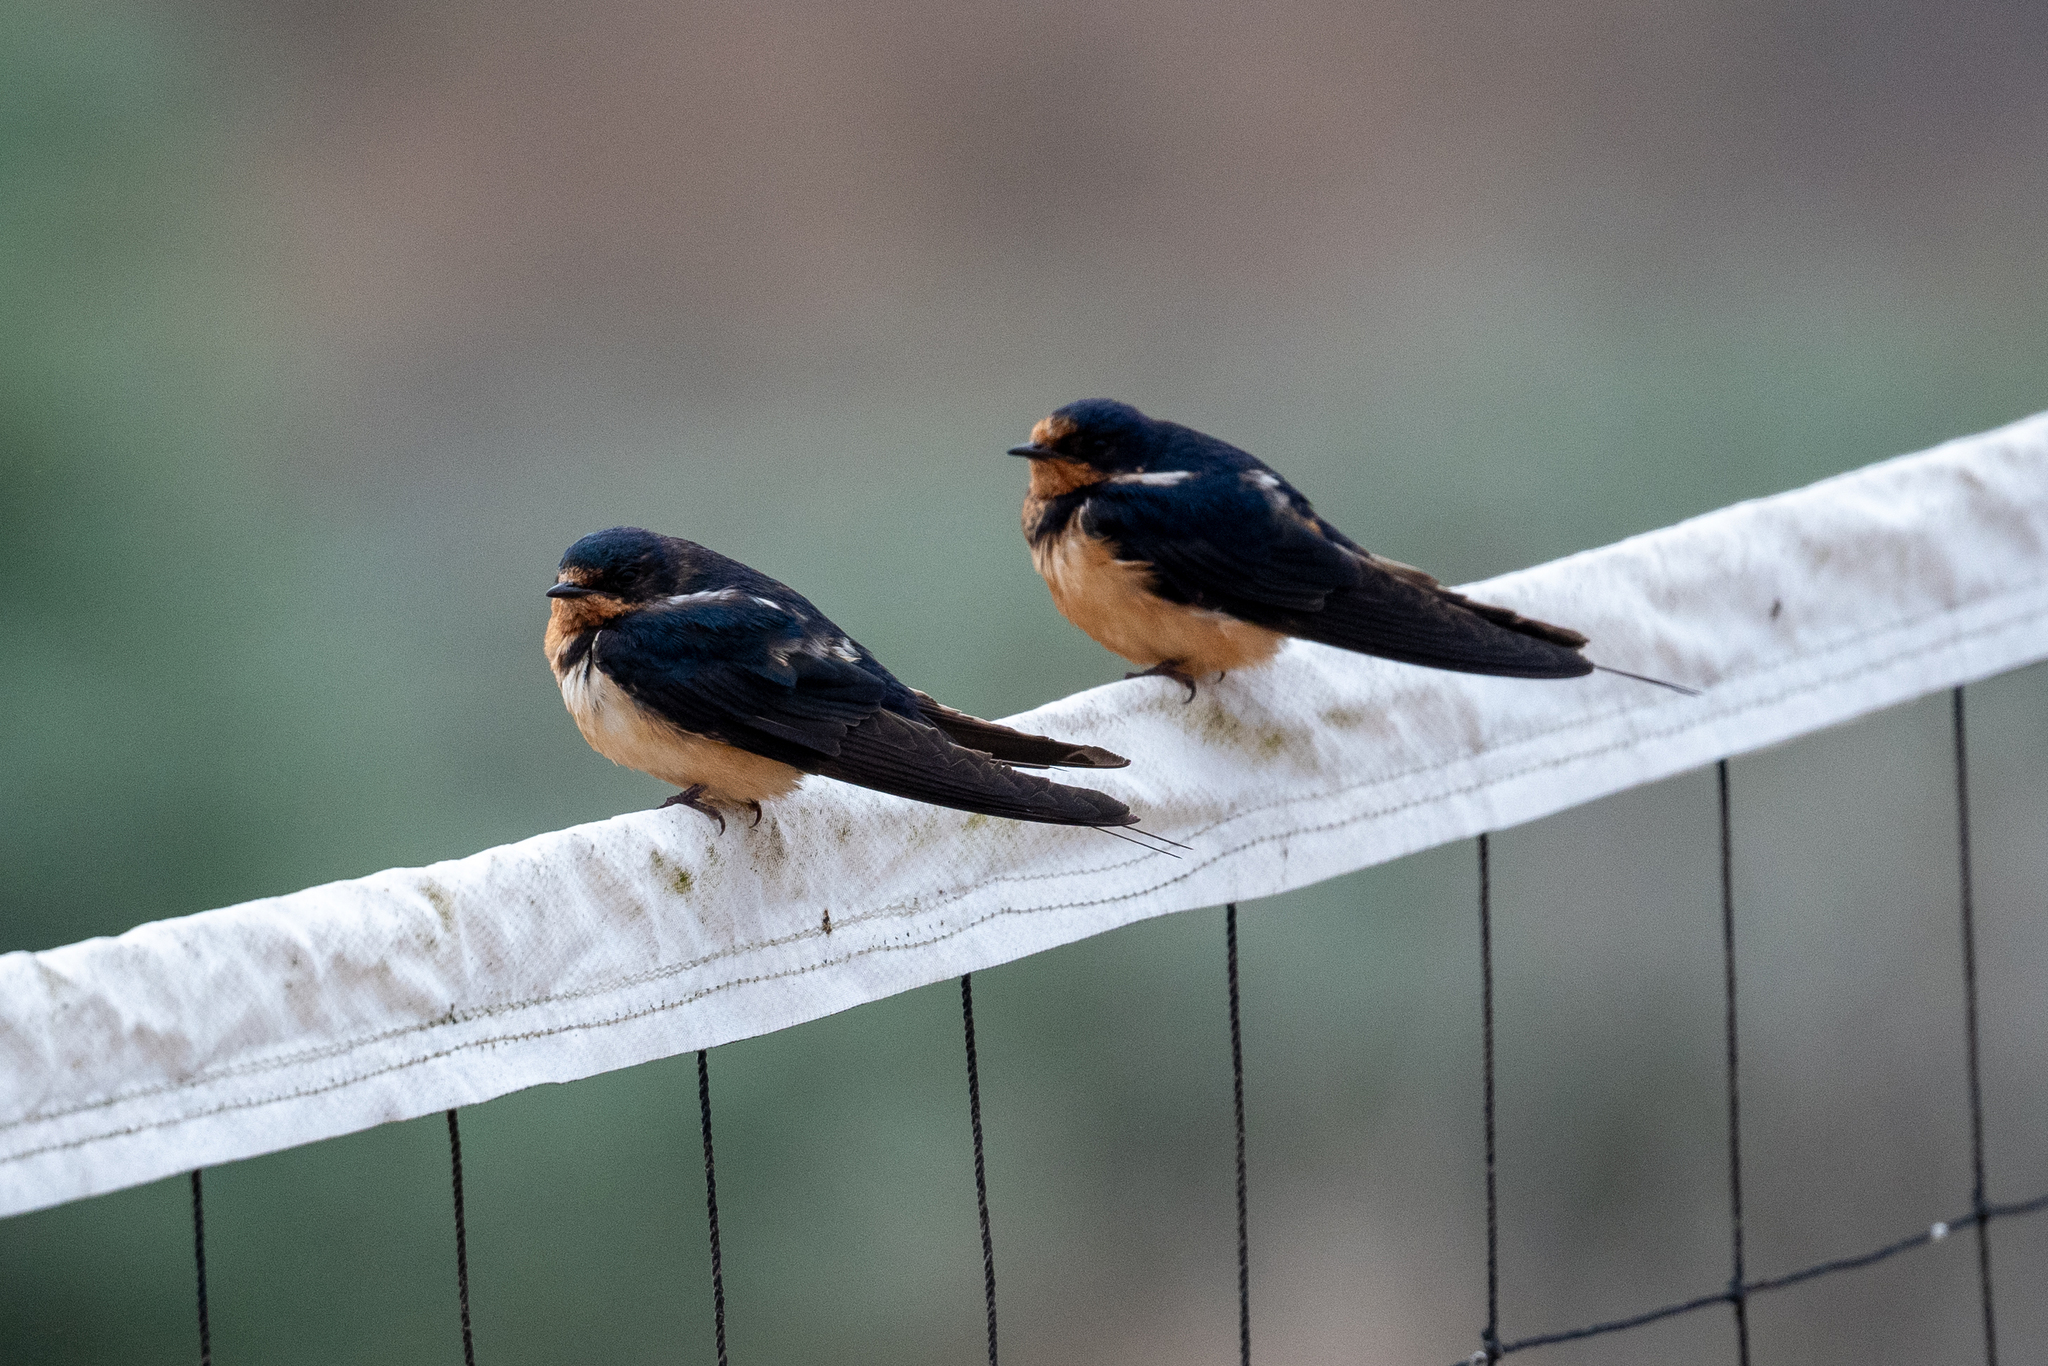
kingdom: Animalia
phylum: Chordata
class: Aves
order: Passeriformes
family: Hirundinidae
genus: Hirundo
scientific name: Hirundo rustica
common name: Barn swallow
